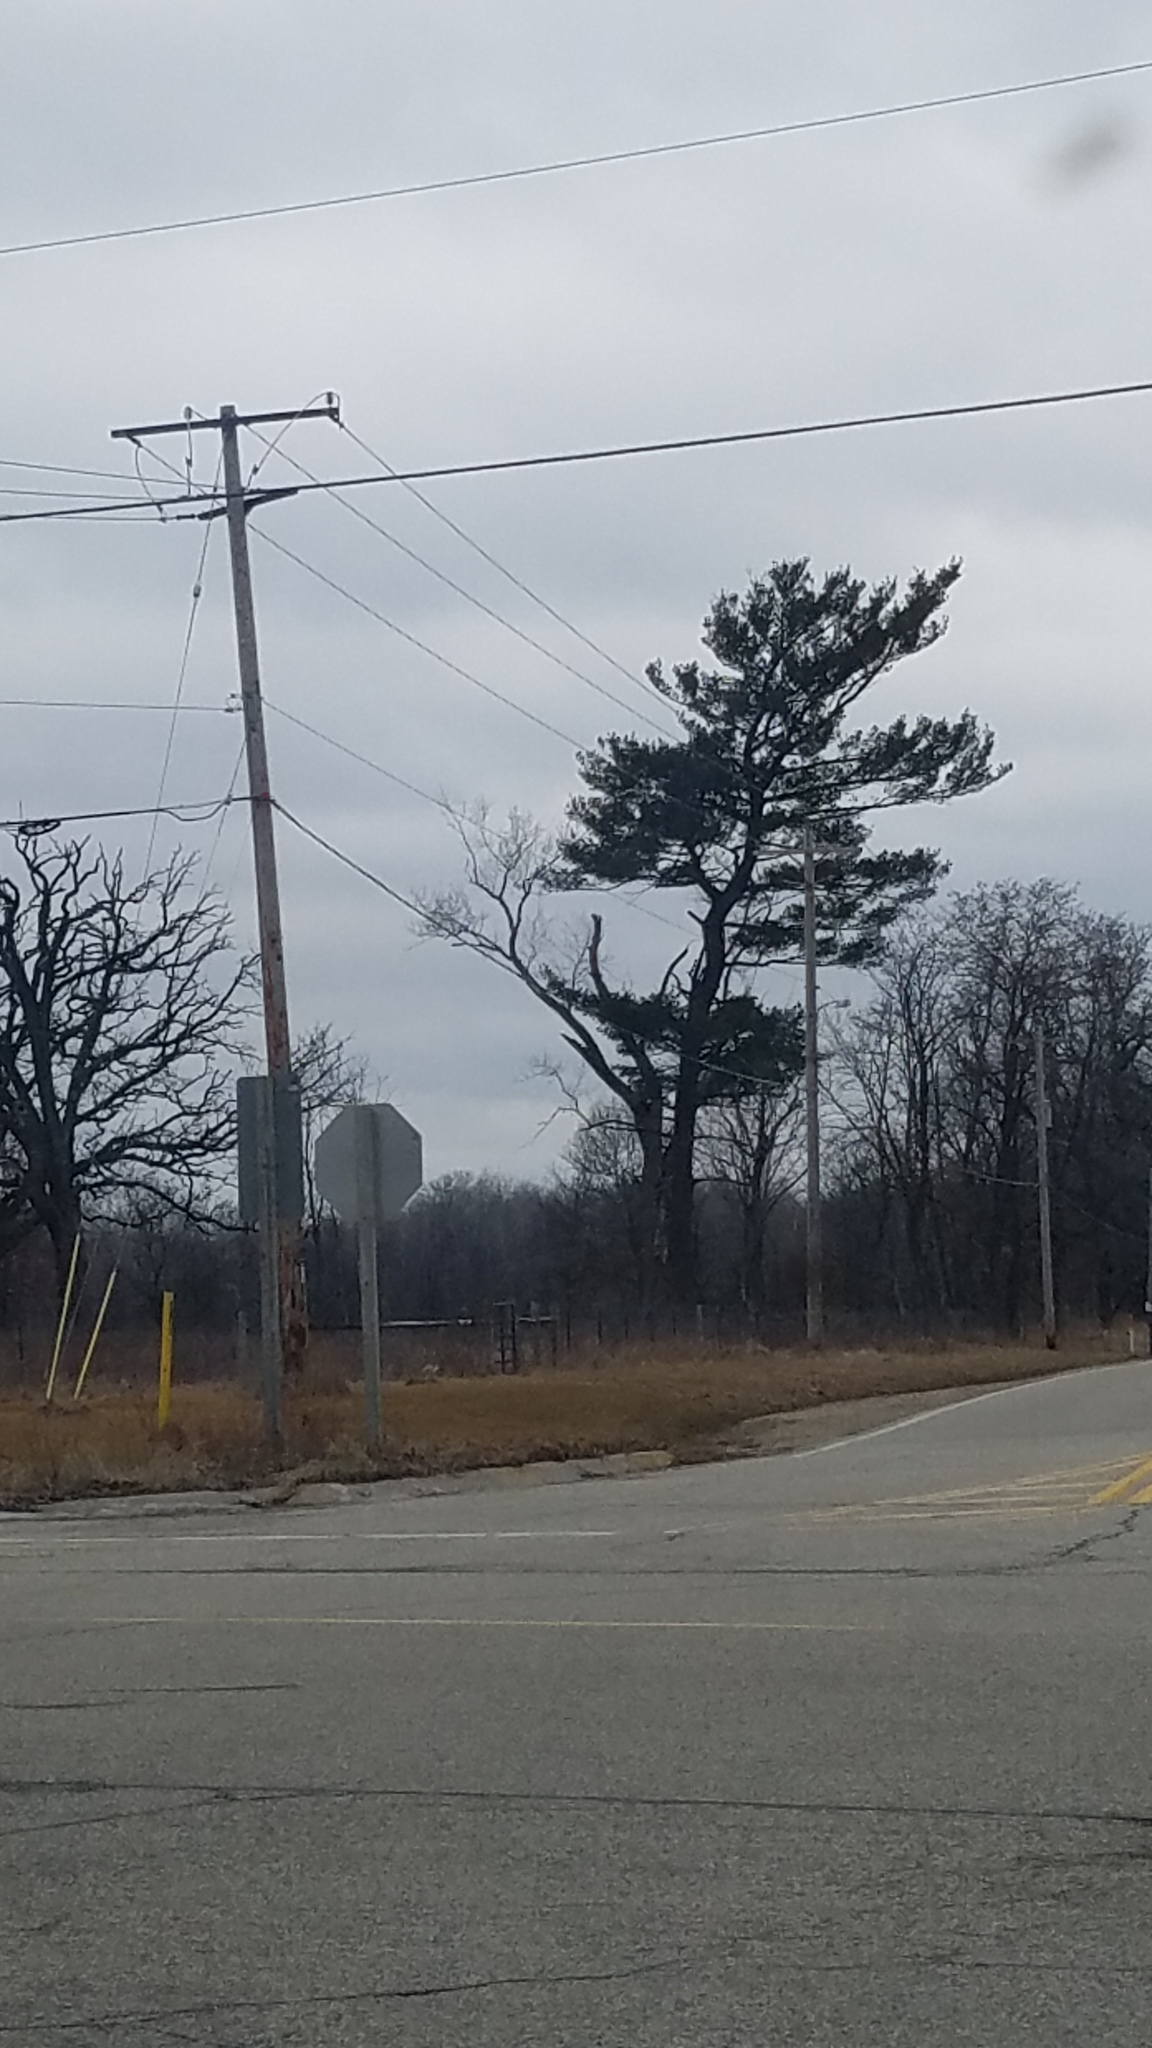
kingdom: Plantae
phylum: Tracheophyta
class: Pinopsida
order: Pinales
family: Pinaceae
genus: Pinus
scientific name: Pinus strobus
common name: Weymouth pine
